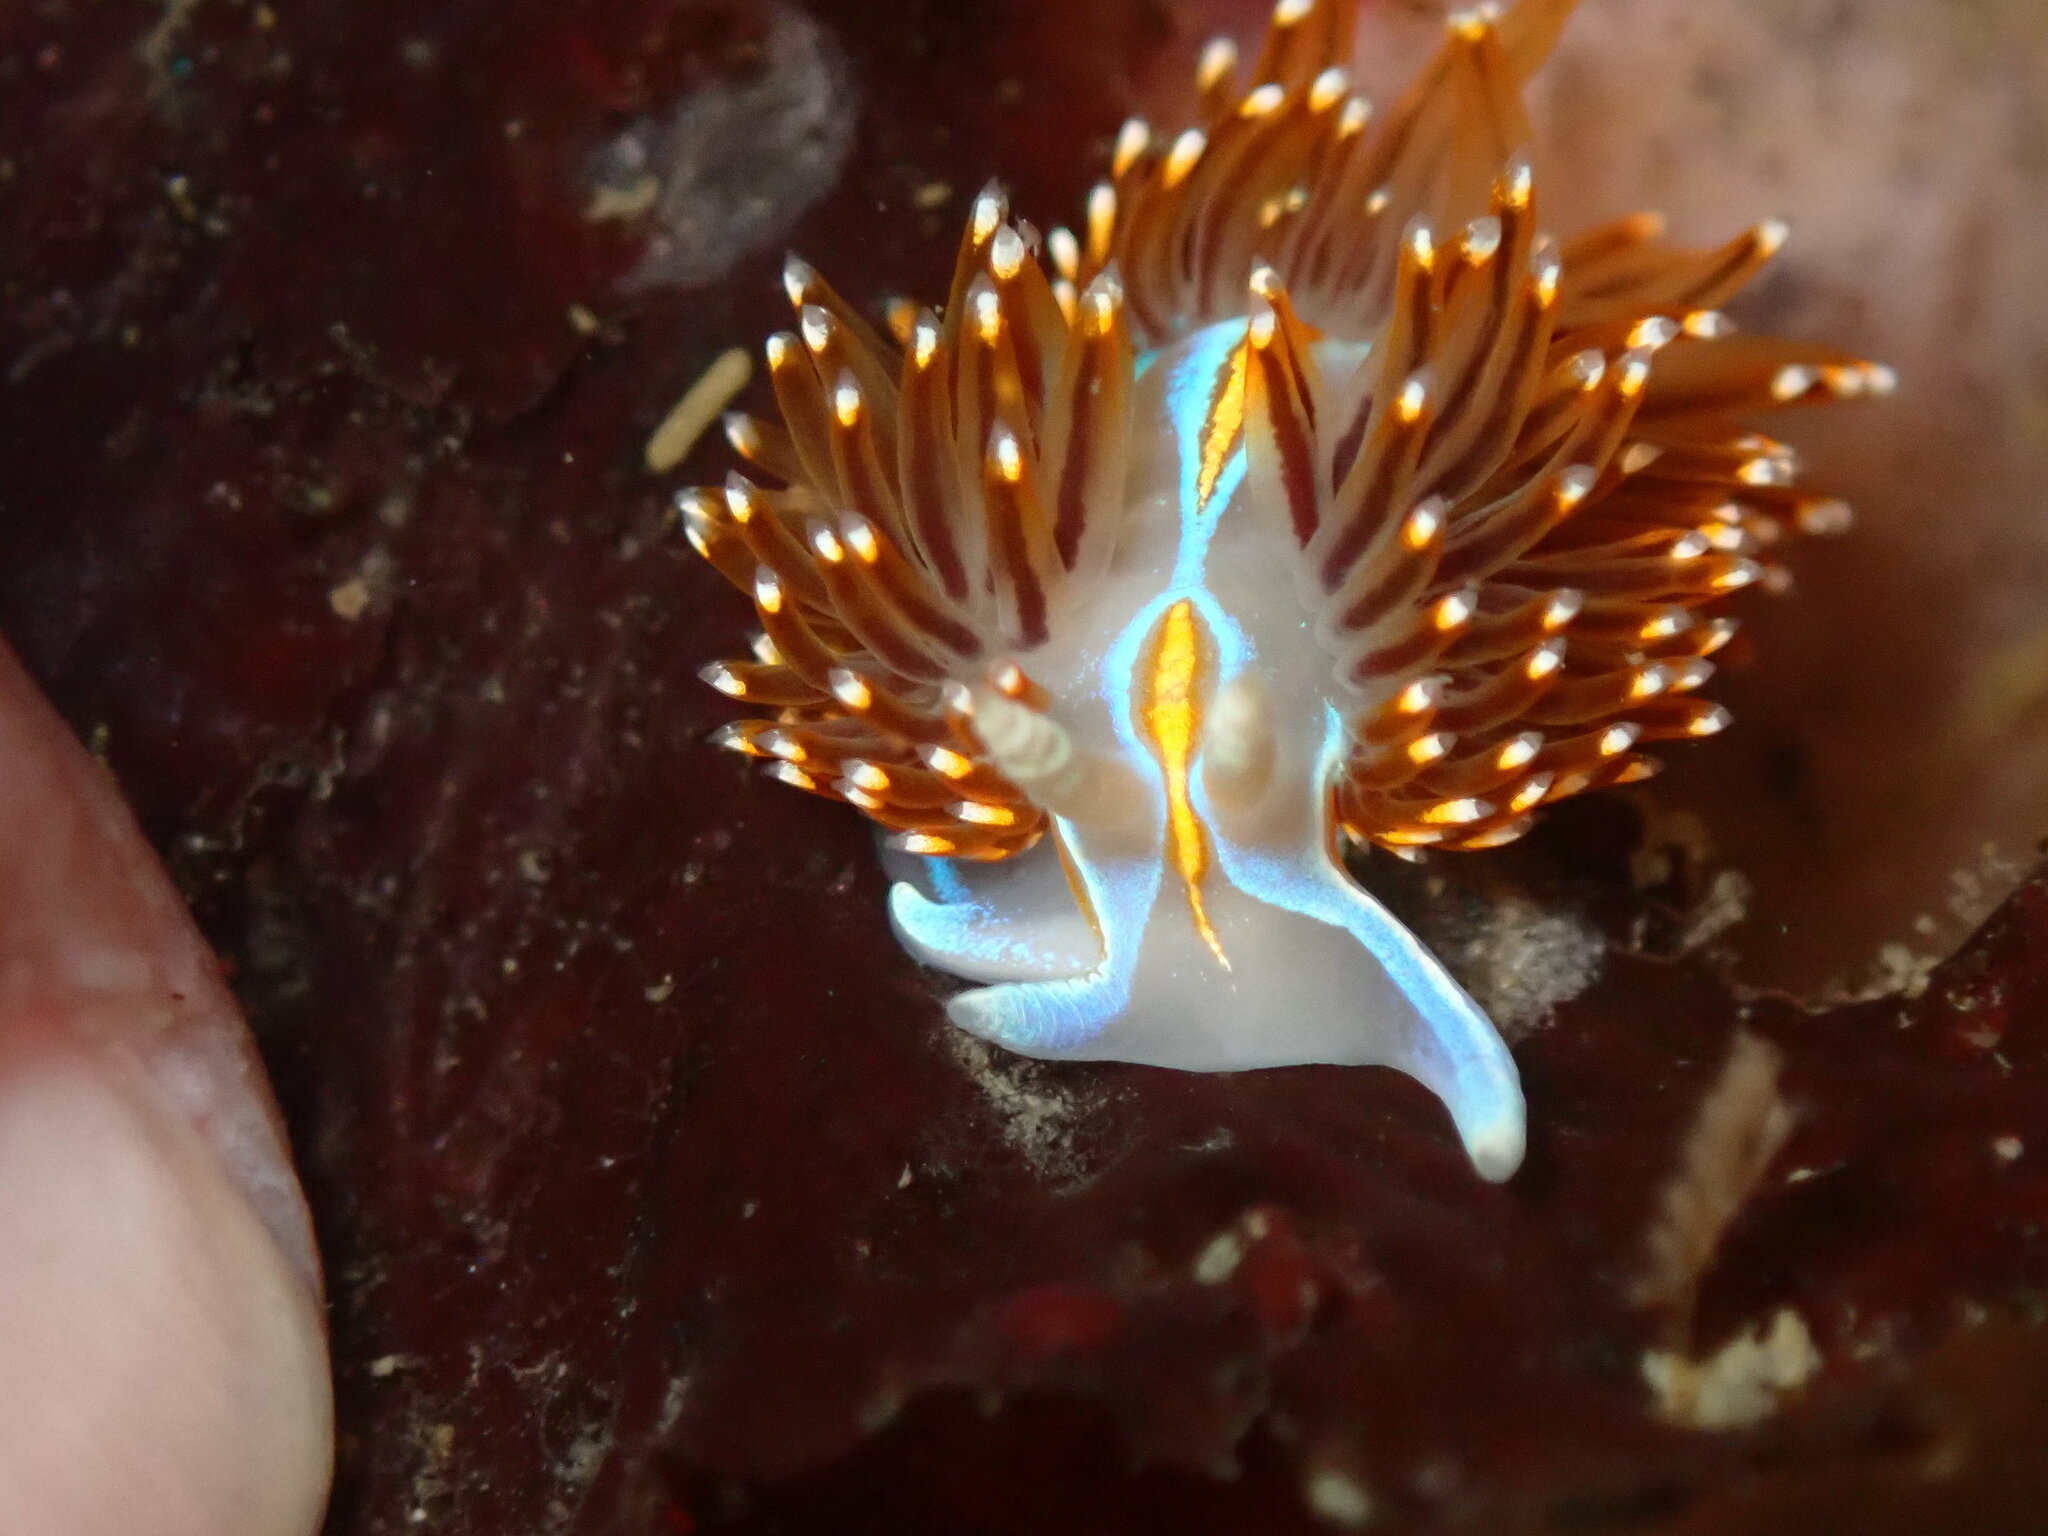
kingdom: Animalia
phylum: Mollusca
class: Gastropoda
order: Nudibranchia
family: Myrrhinidae
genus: Hermissenda
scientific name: Hermissenda opalescens
